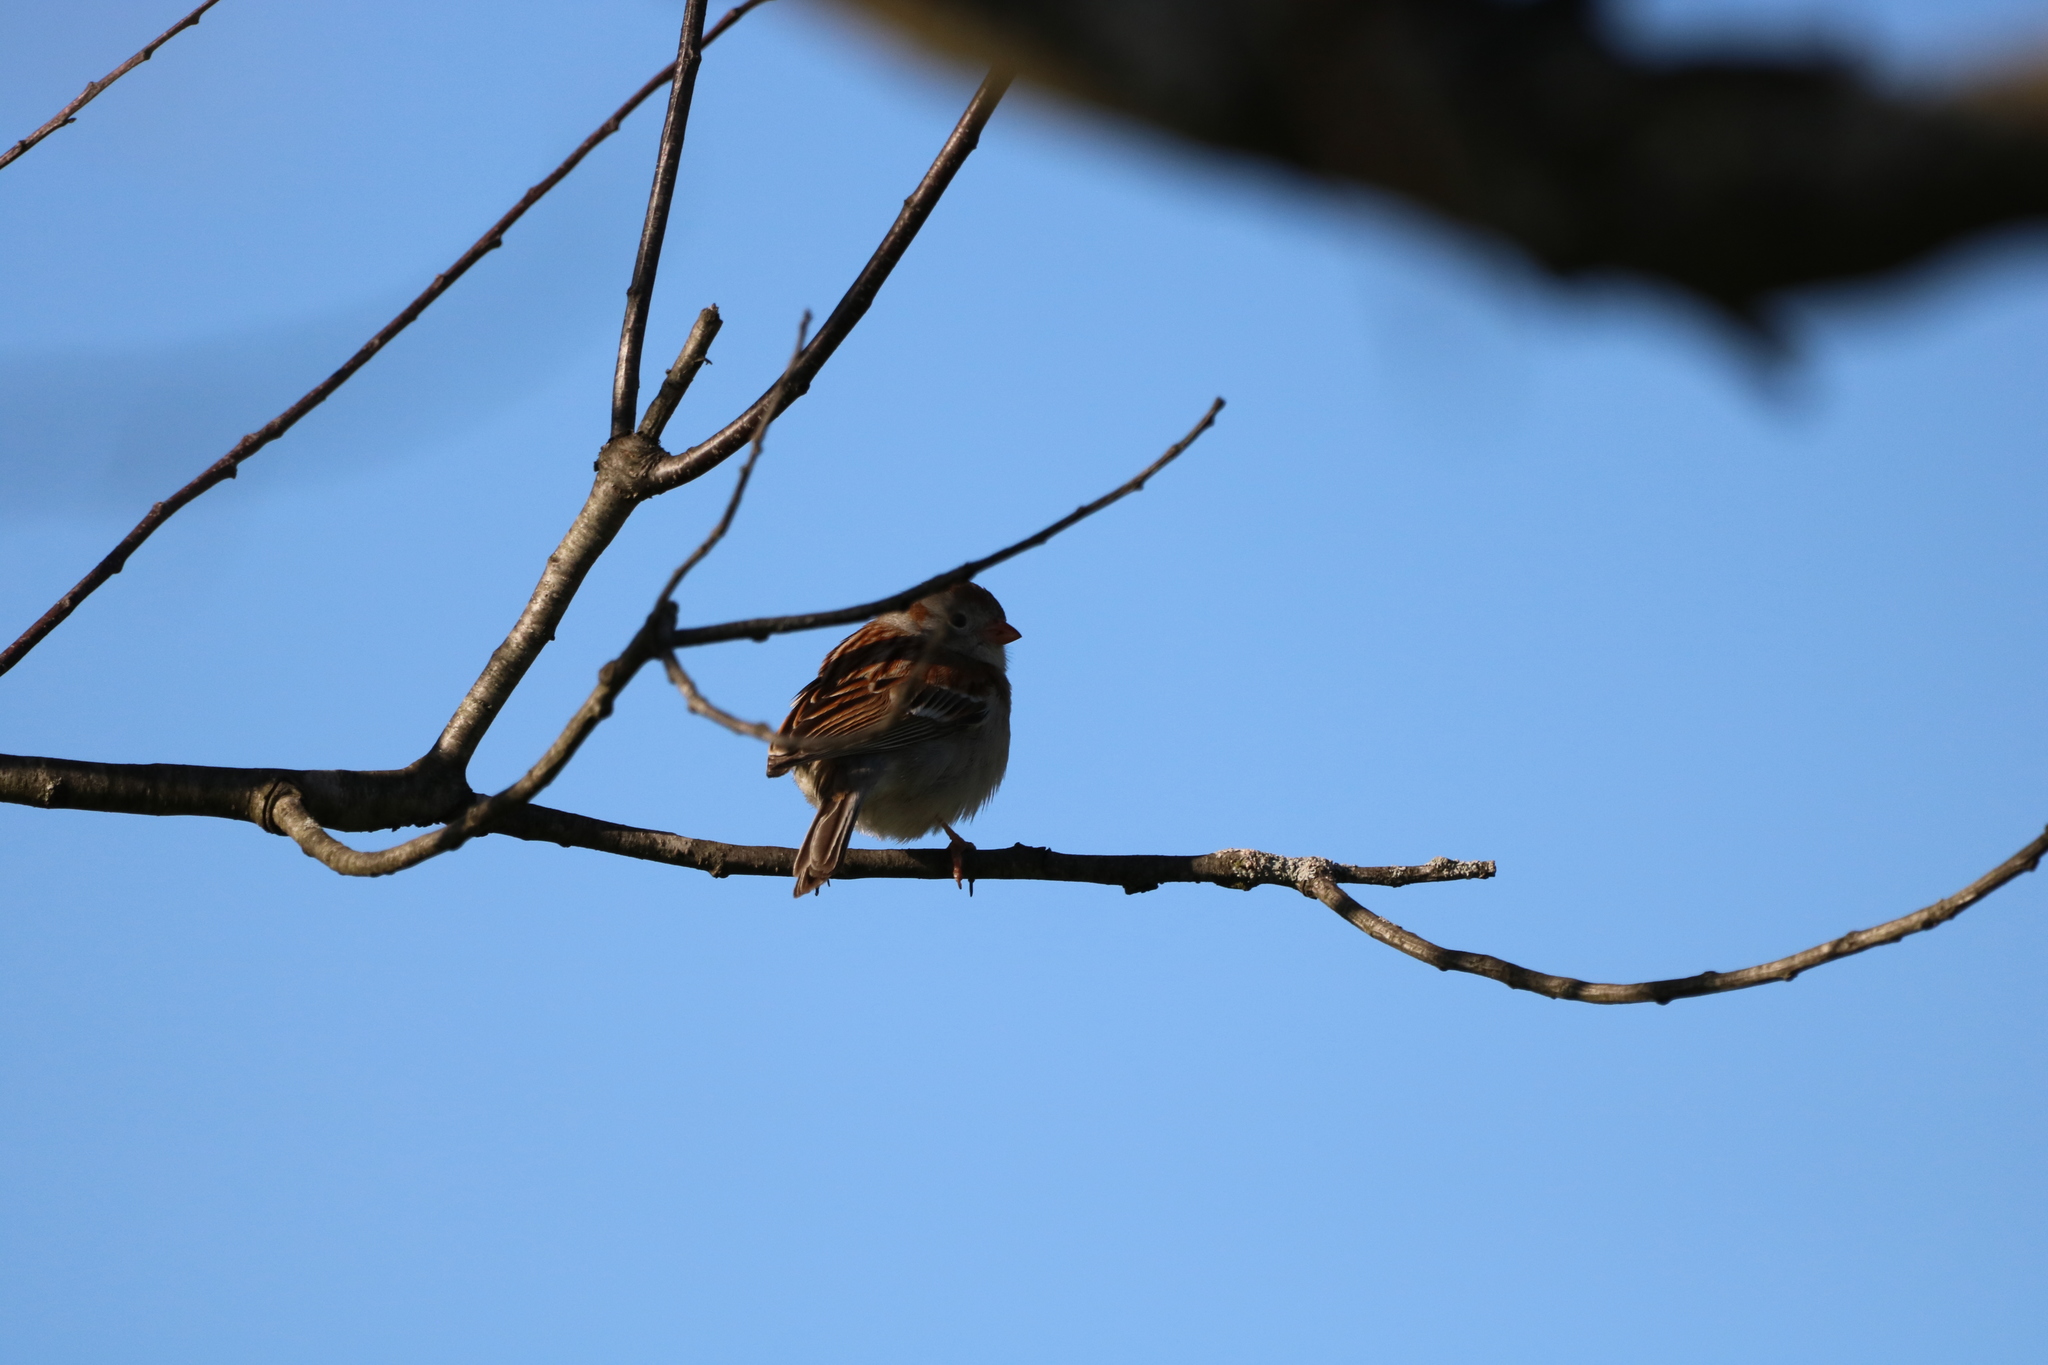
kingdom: Animalia
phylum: Chordata
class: Aves
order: Passeriformes
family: Passeridae
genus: Passer
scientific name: Passer domesticus
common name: House sparrow
